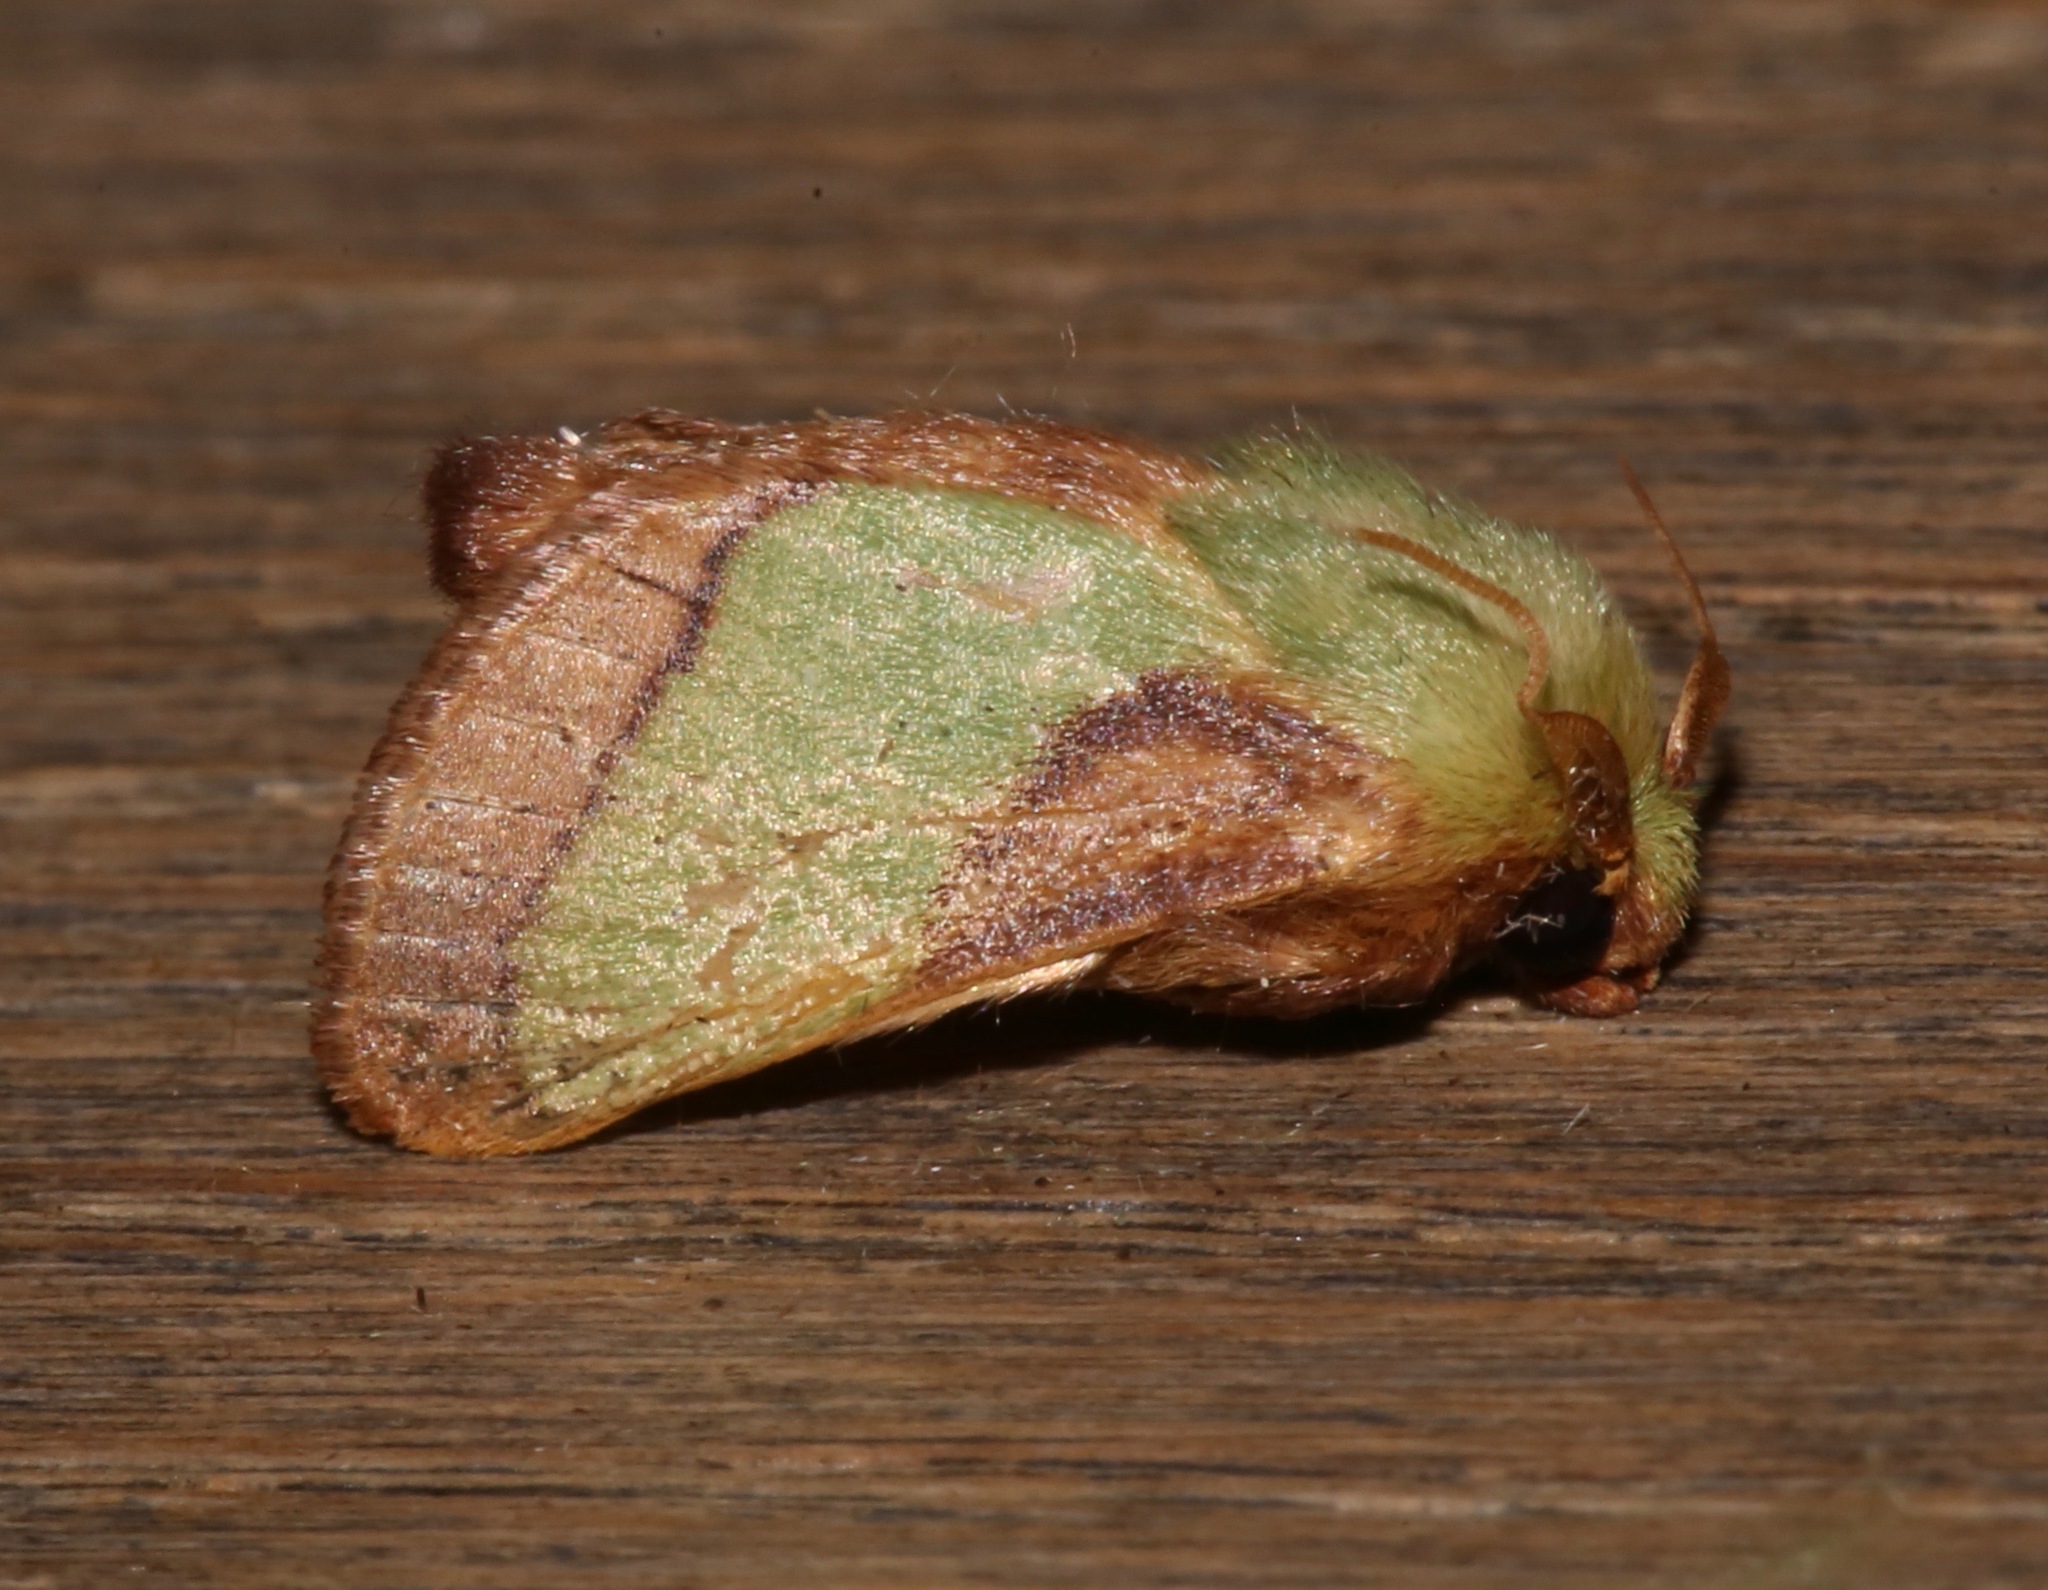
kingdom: Animalia
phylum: Arthropoda
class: Insecta
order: Lepidoptera
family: Limacodidae
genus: Parasa
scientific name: Parasa chloris
